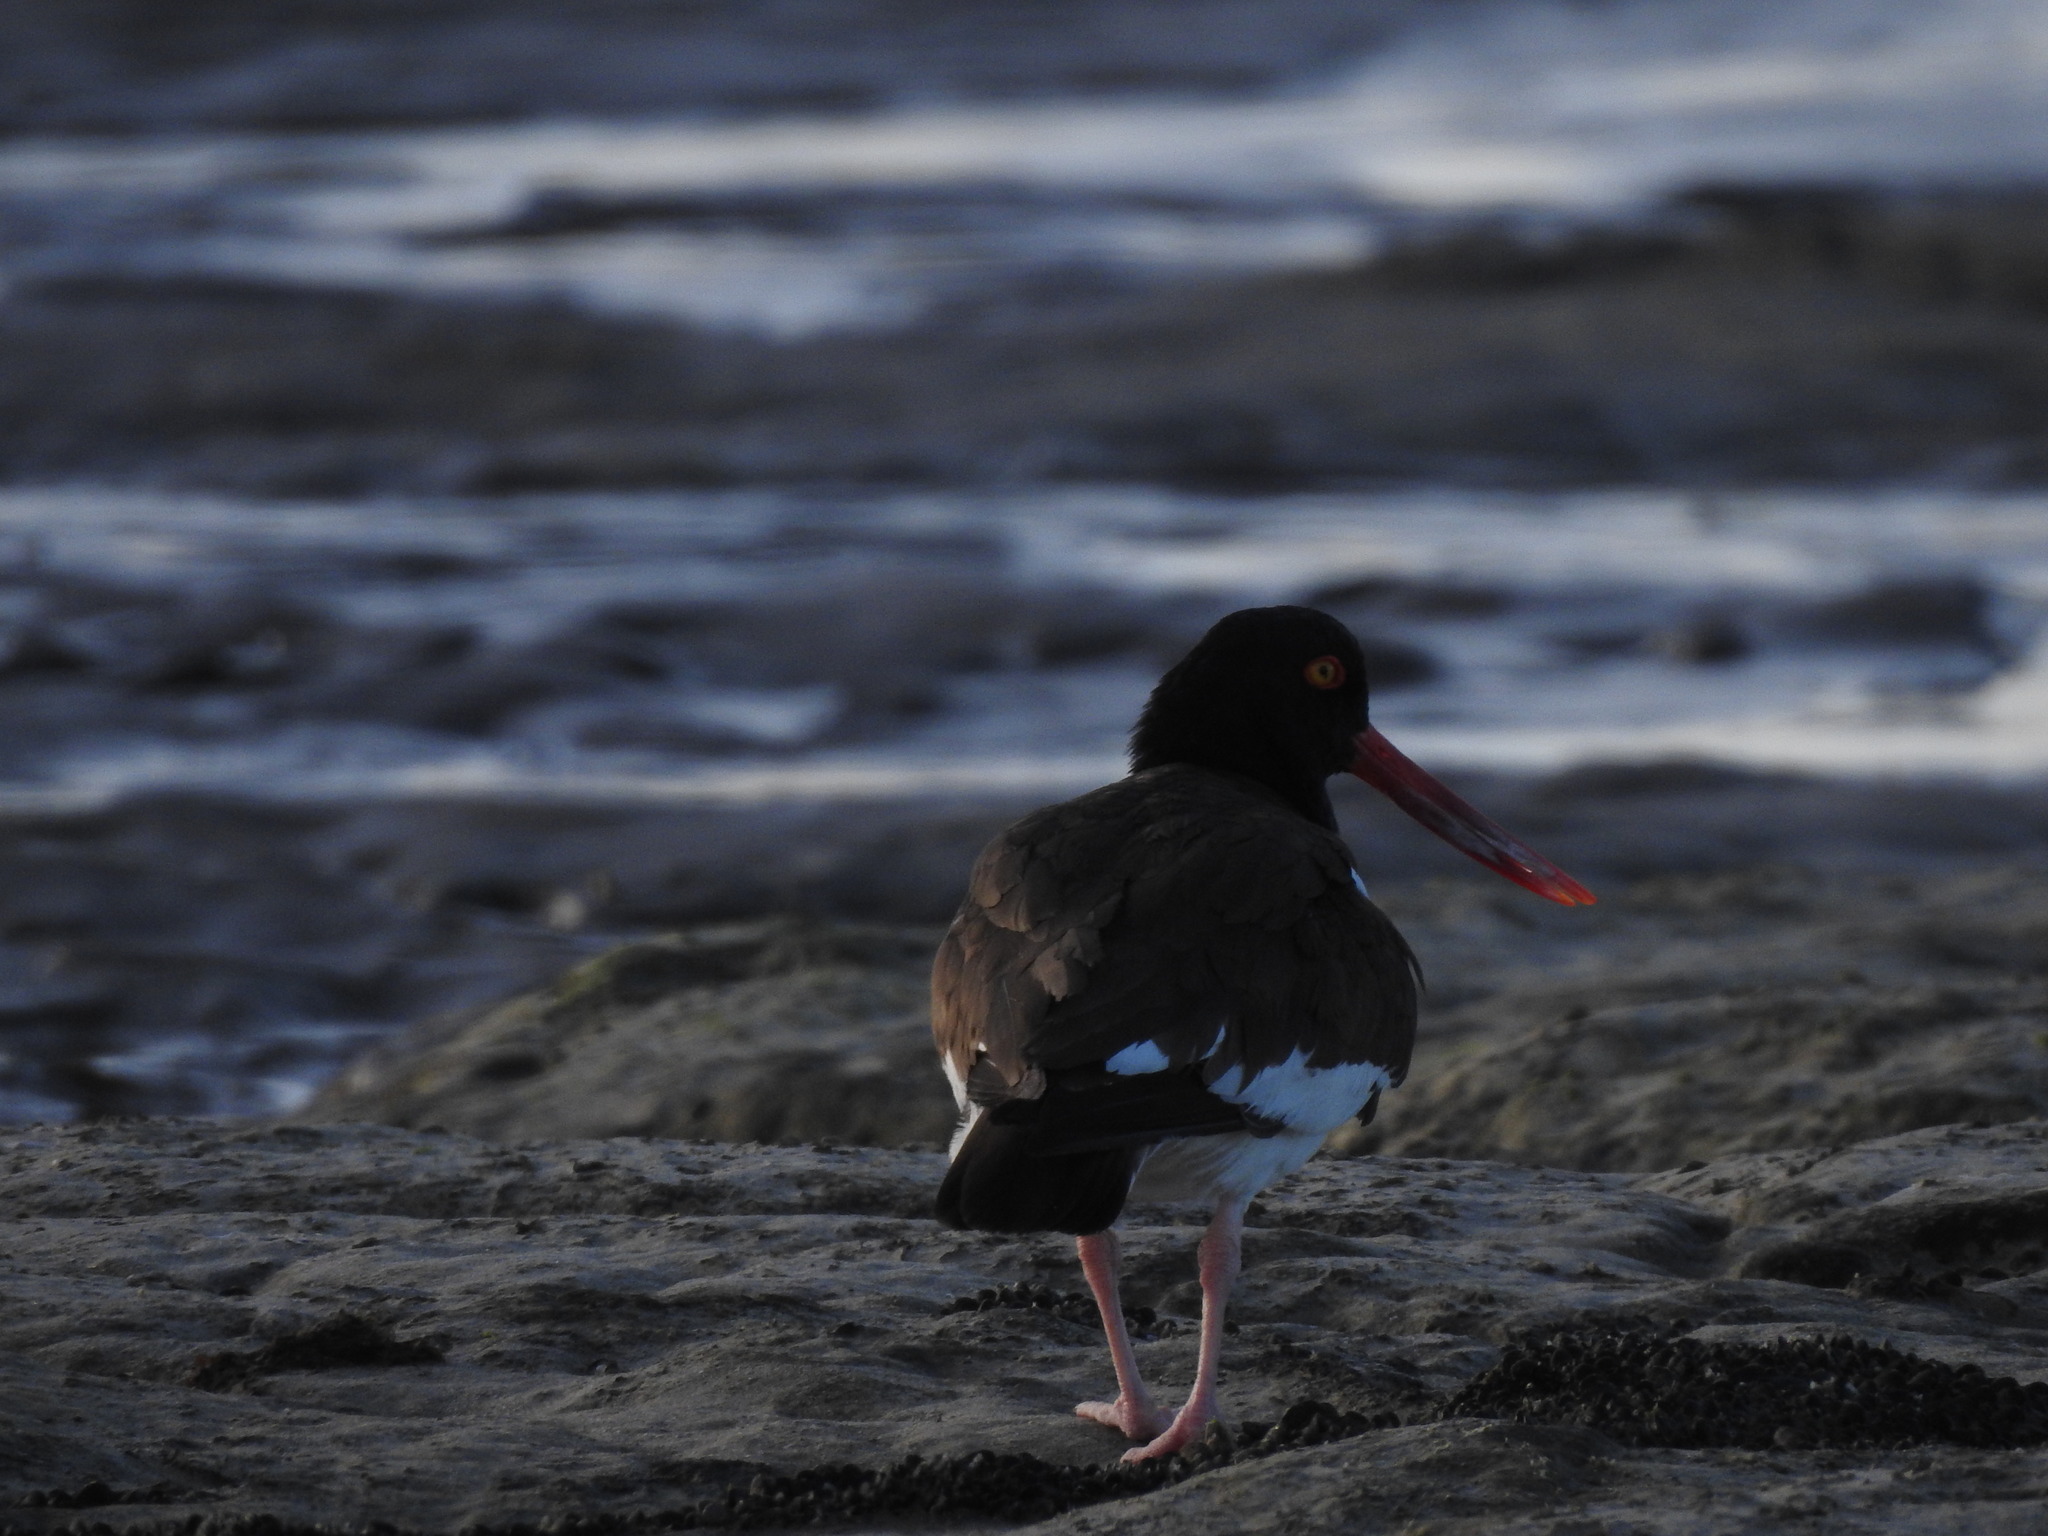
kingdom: Animalia
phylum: Chordata
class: Aves
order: Charadriiformes
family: Haematopodidae
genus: Haematopus
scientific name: Haematopus palliatus
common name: American oystercatcher
